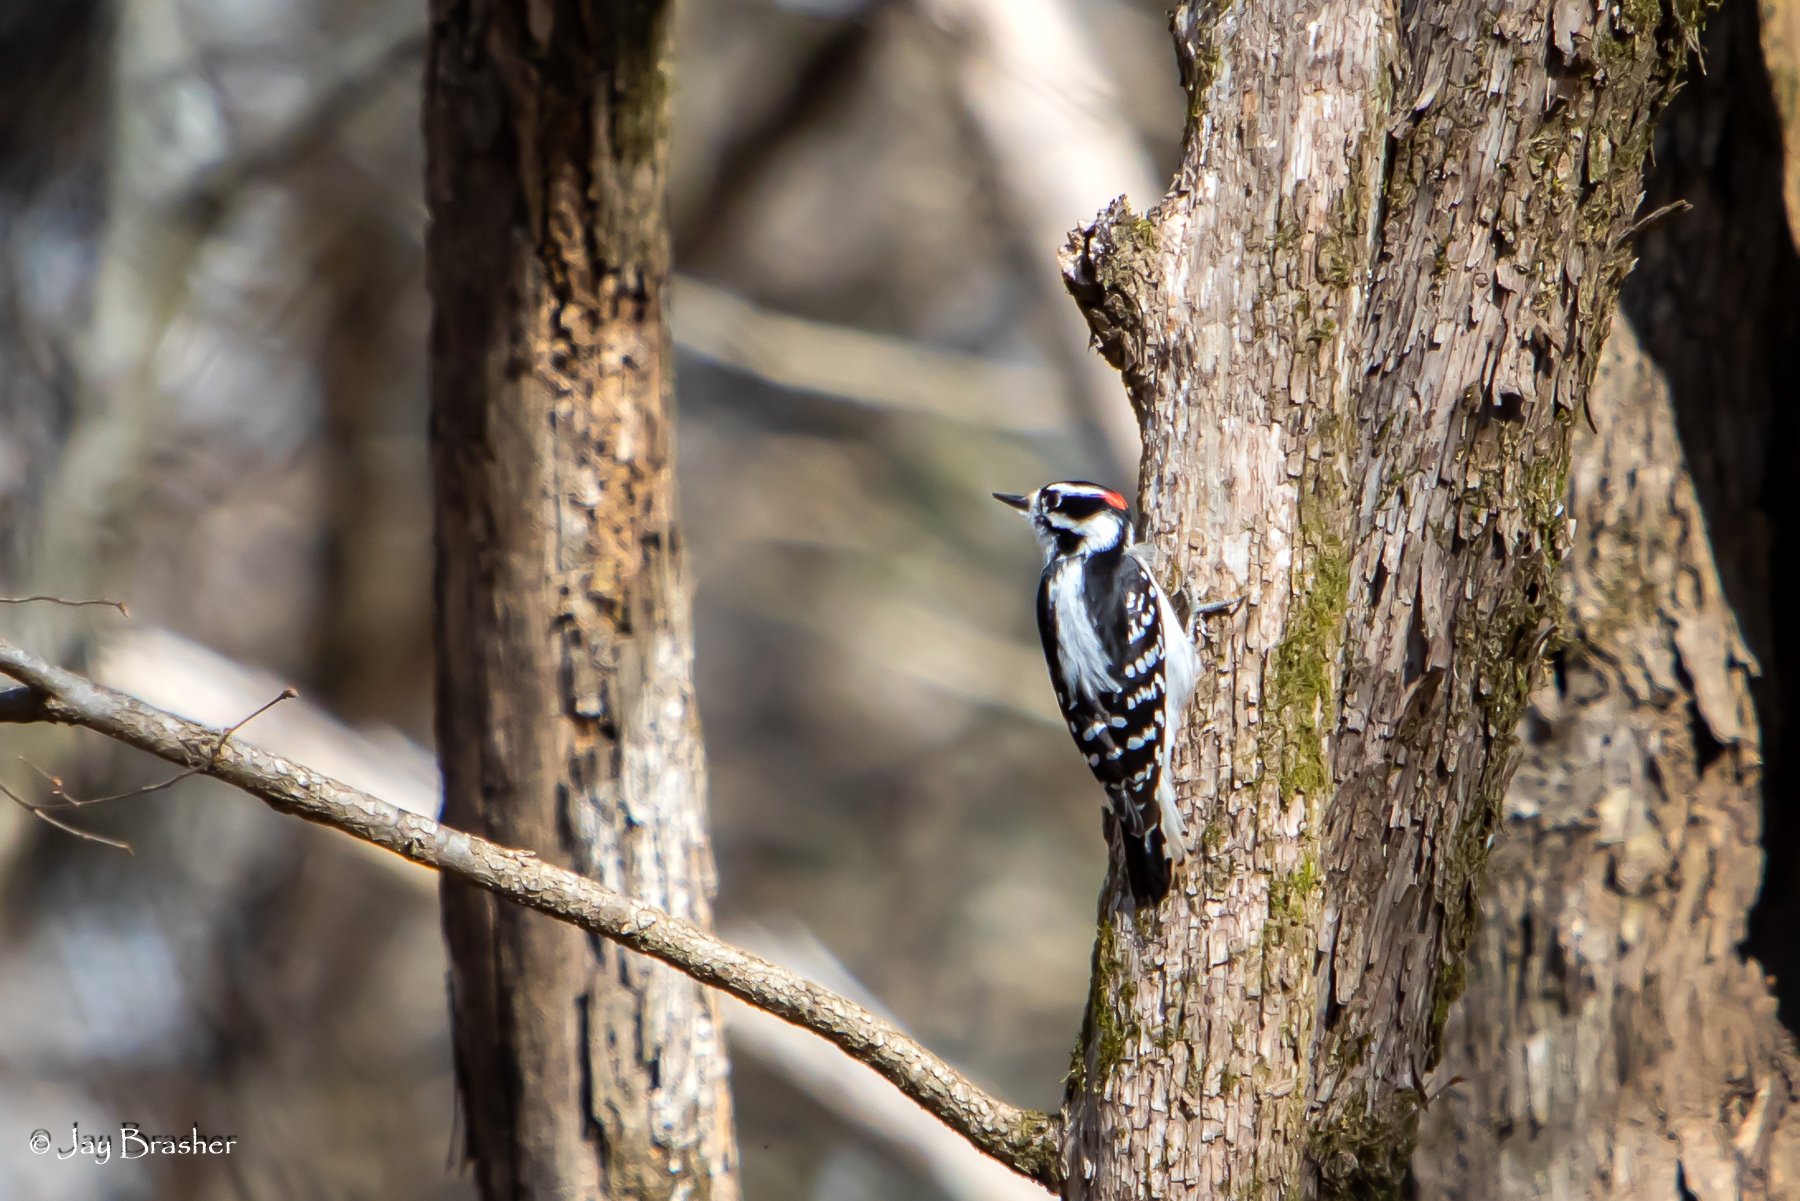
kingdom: Animalia
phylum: Chordata
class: Aves
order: Piciformes
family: Picidae
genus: Dryobates
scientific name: Dryobates pubescens
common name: Downy woodpecker
